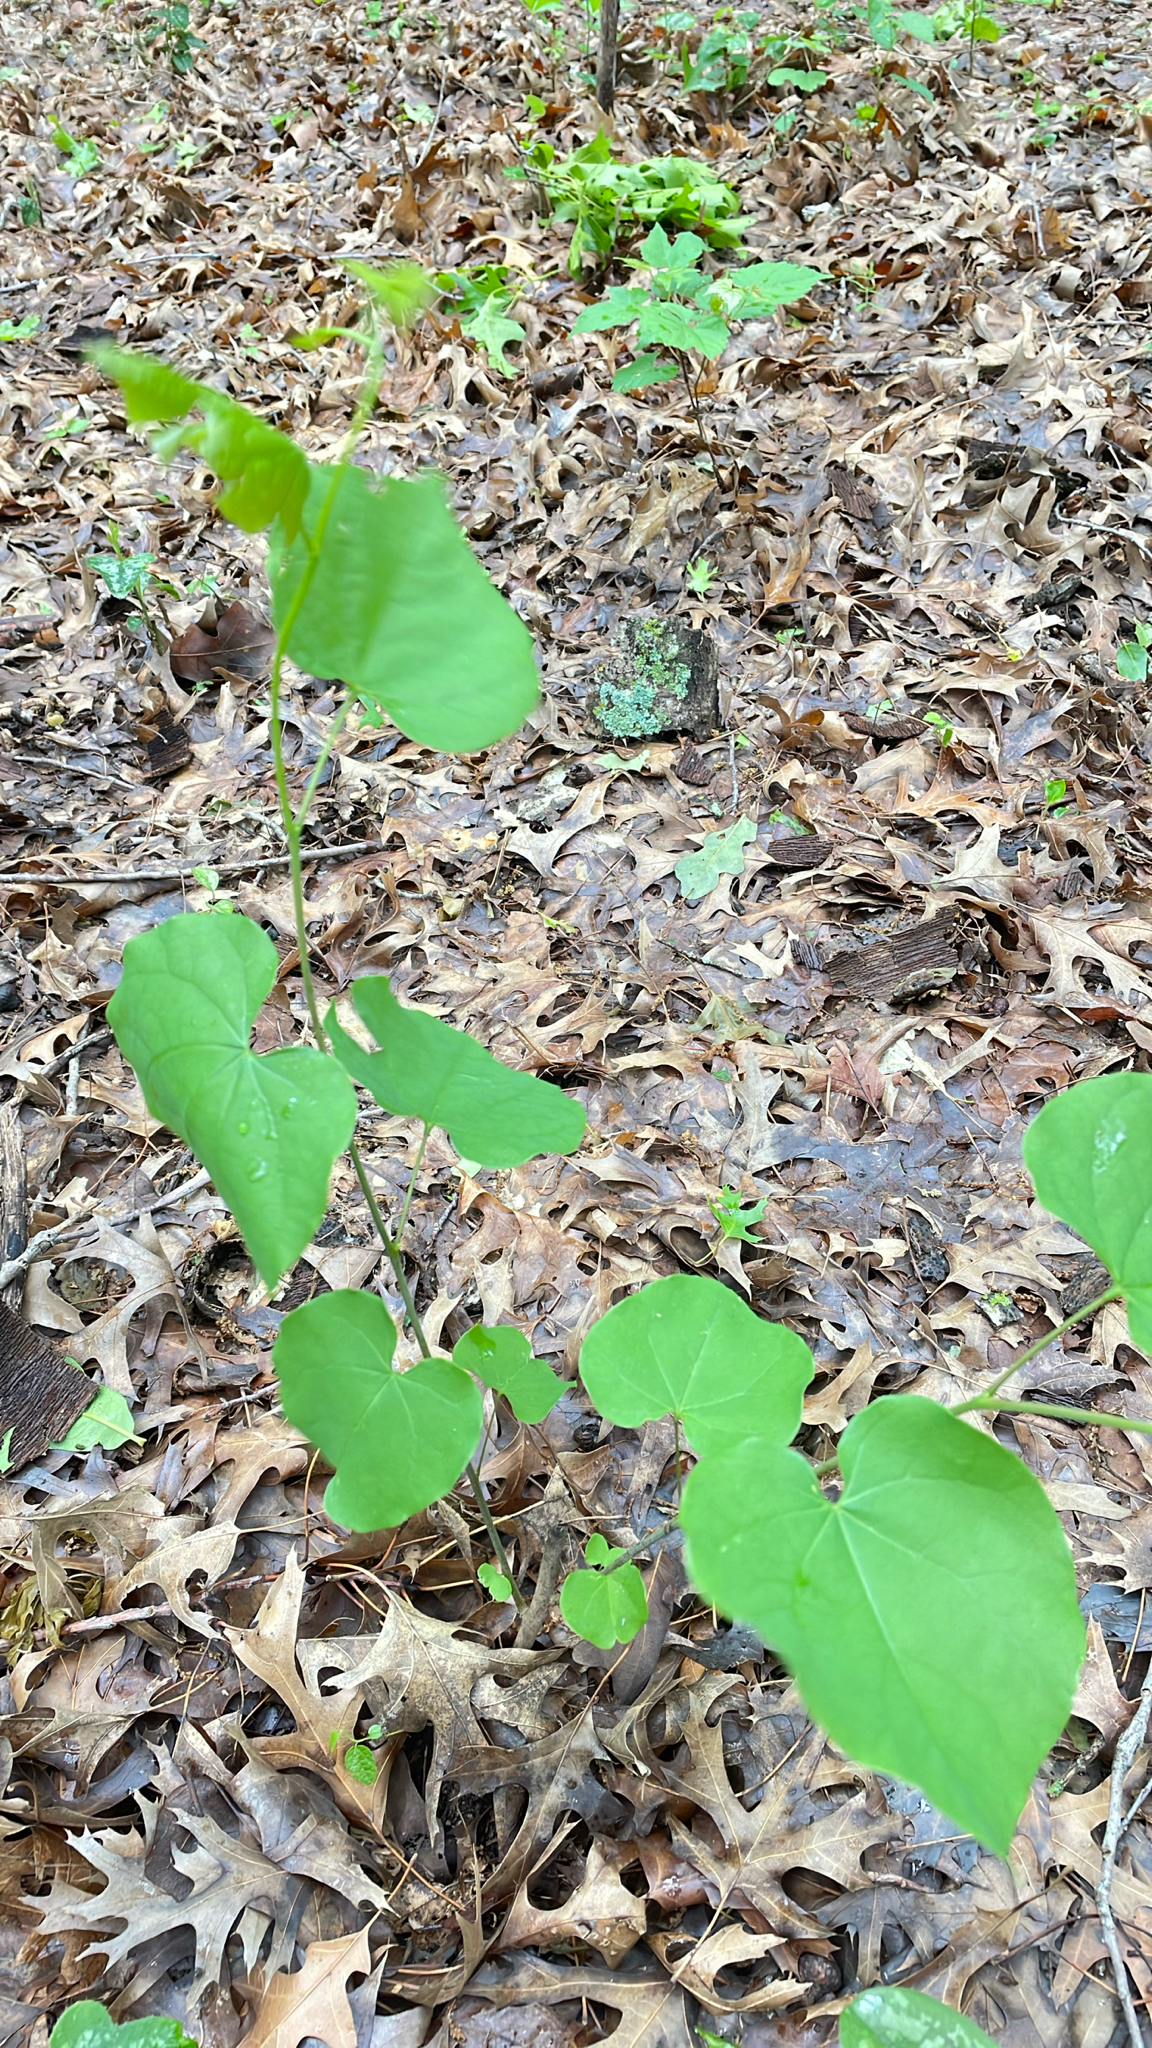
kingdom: Plantae
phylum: Tracheophyta
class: Magnoliopsida
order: Fabales
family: Fabaceae
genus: Cercis
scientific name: Cercis canadensis
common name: Eastern redbud
